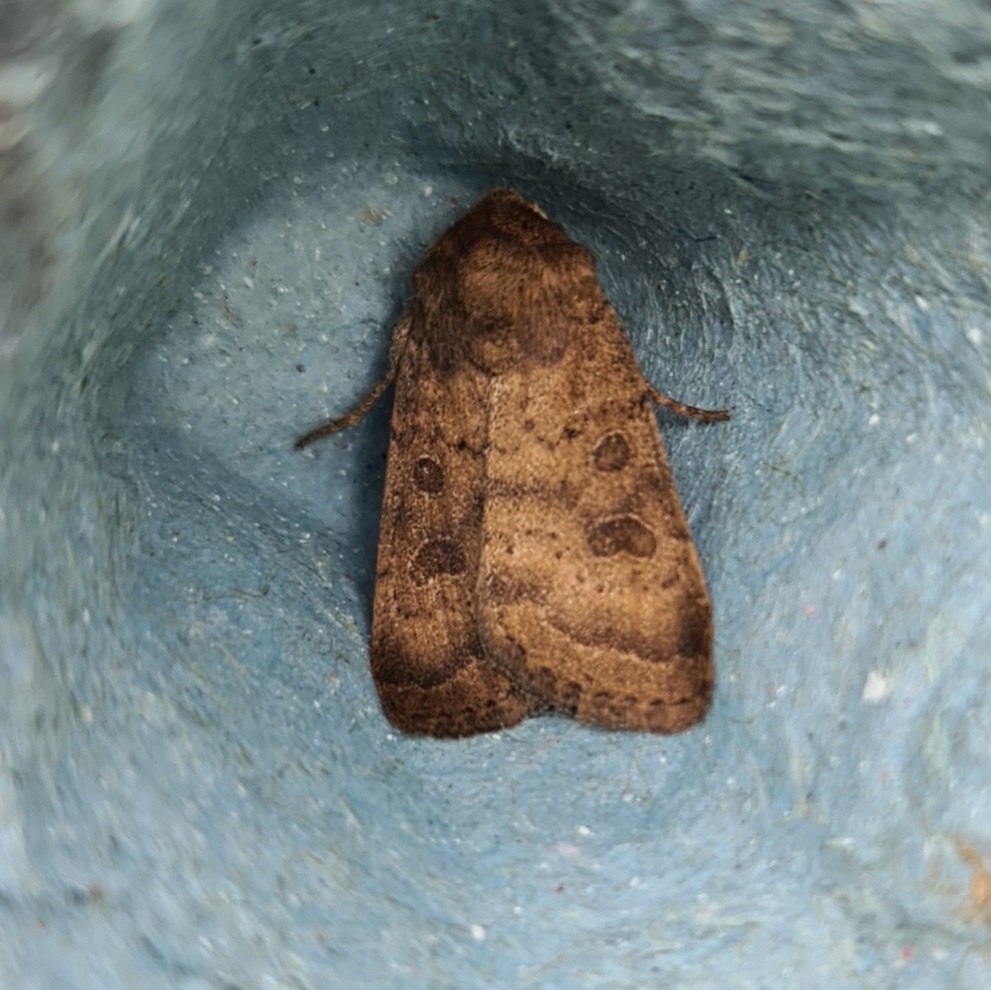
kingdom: Animalia
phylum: Arthropoda
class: Insecta
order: Lepidoptera
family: Noctuidae
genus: Hoplodrina
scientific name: Hoplodrina octogenaria
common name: Uncertain
